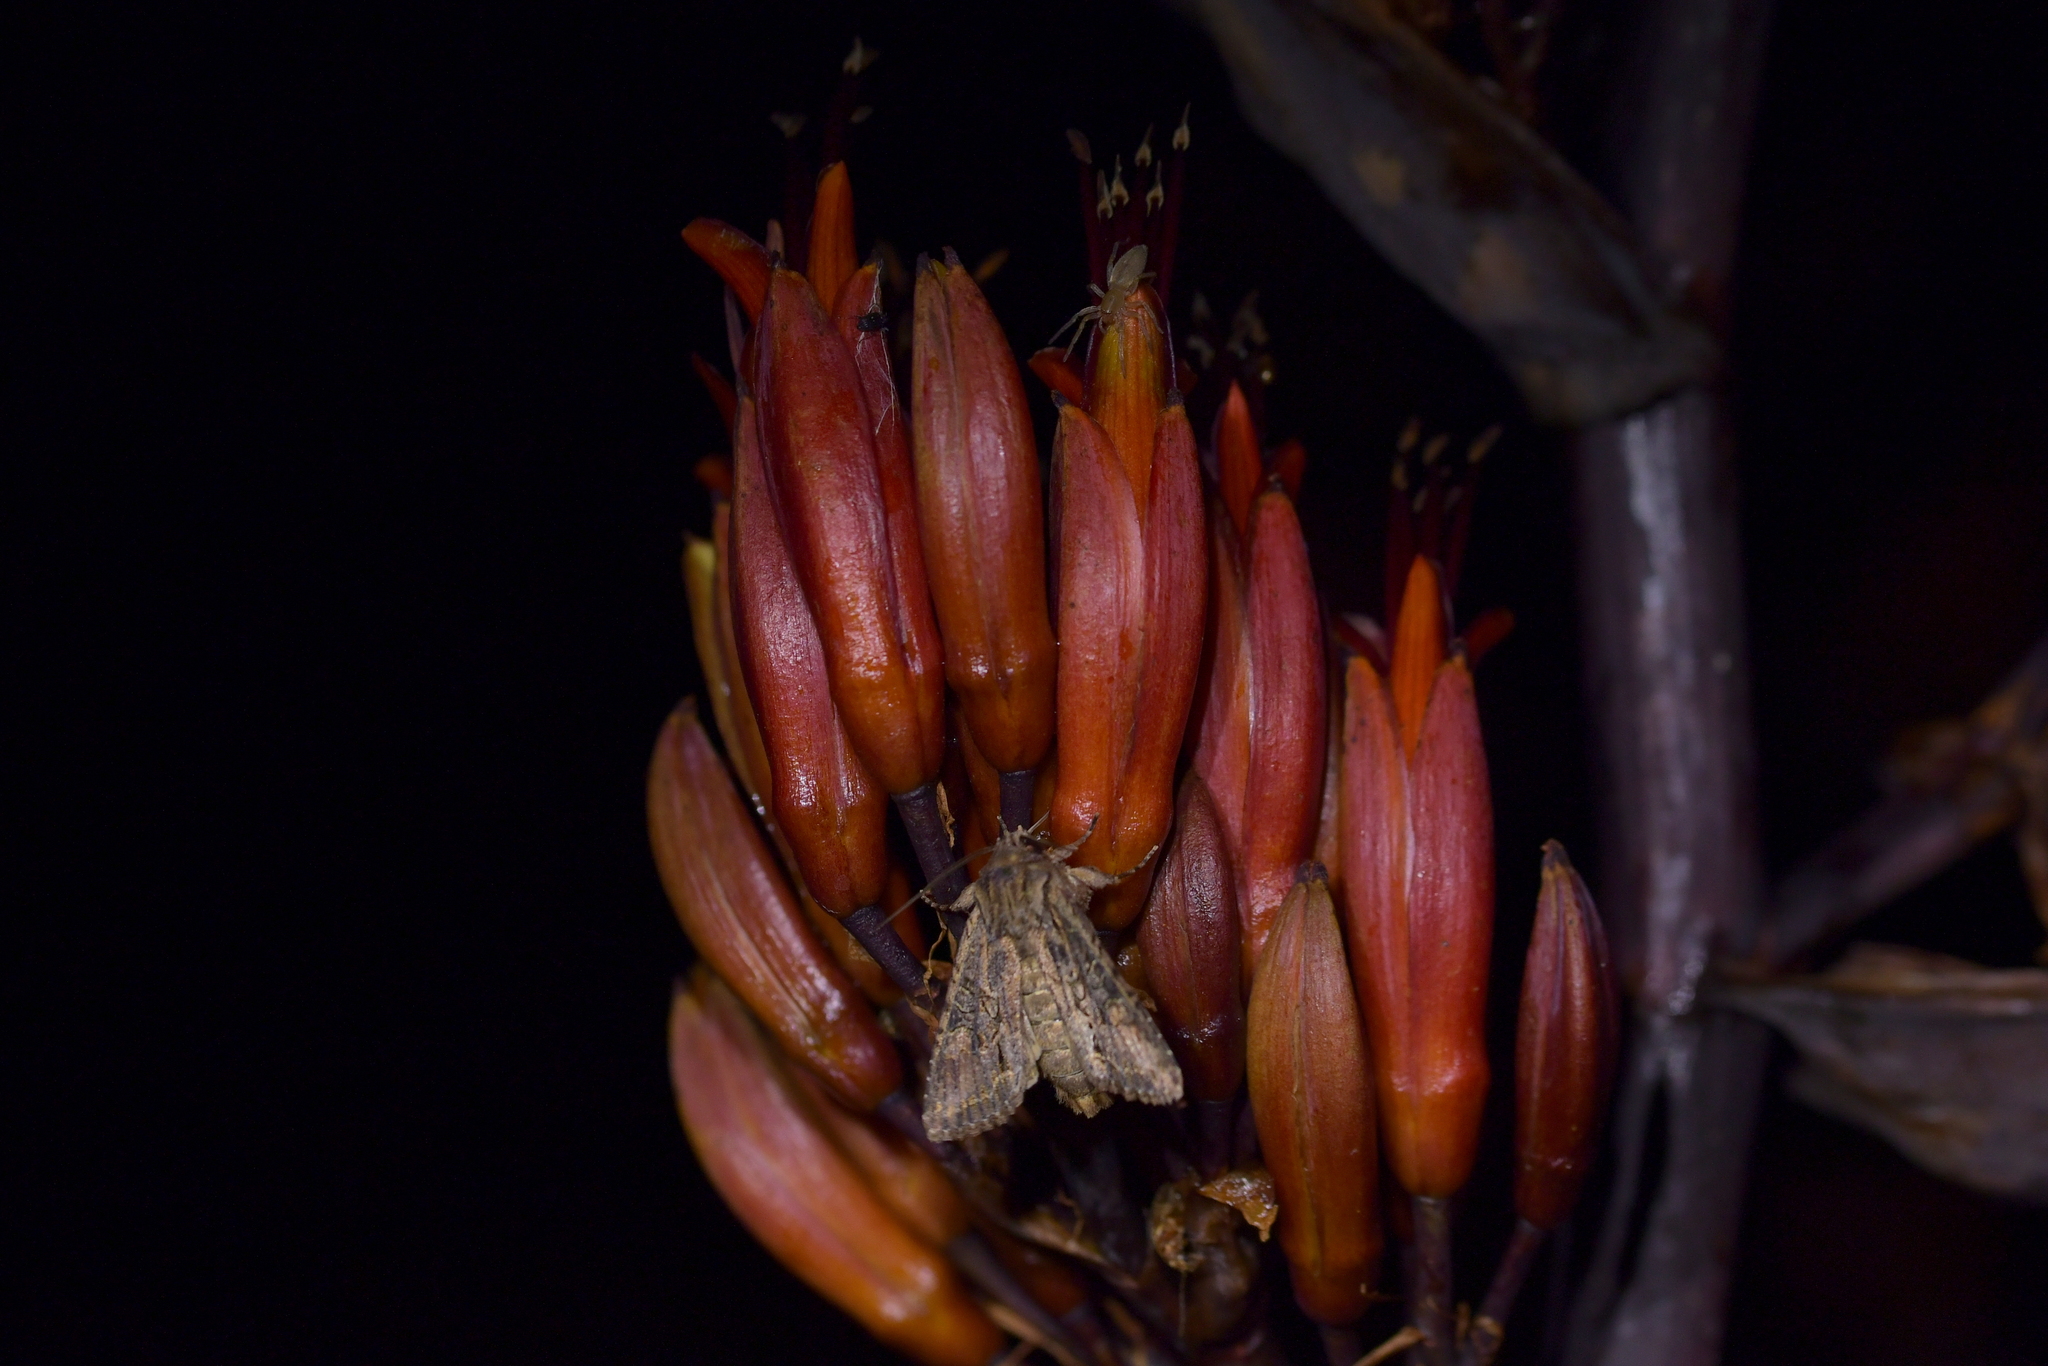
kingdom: Animalia
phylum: Arthropoda
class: Insecta
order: Lepidoptera
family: Noctuidae
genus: Ichneutica
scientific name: Ichneutica mutans
